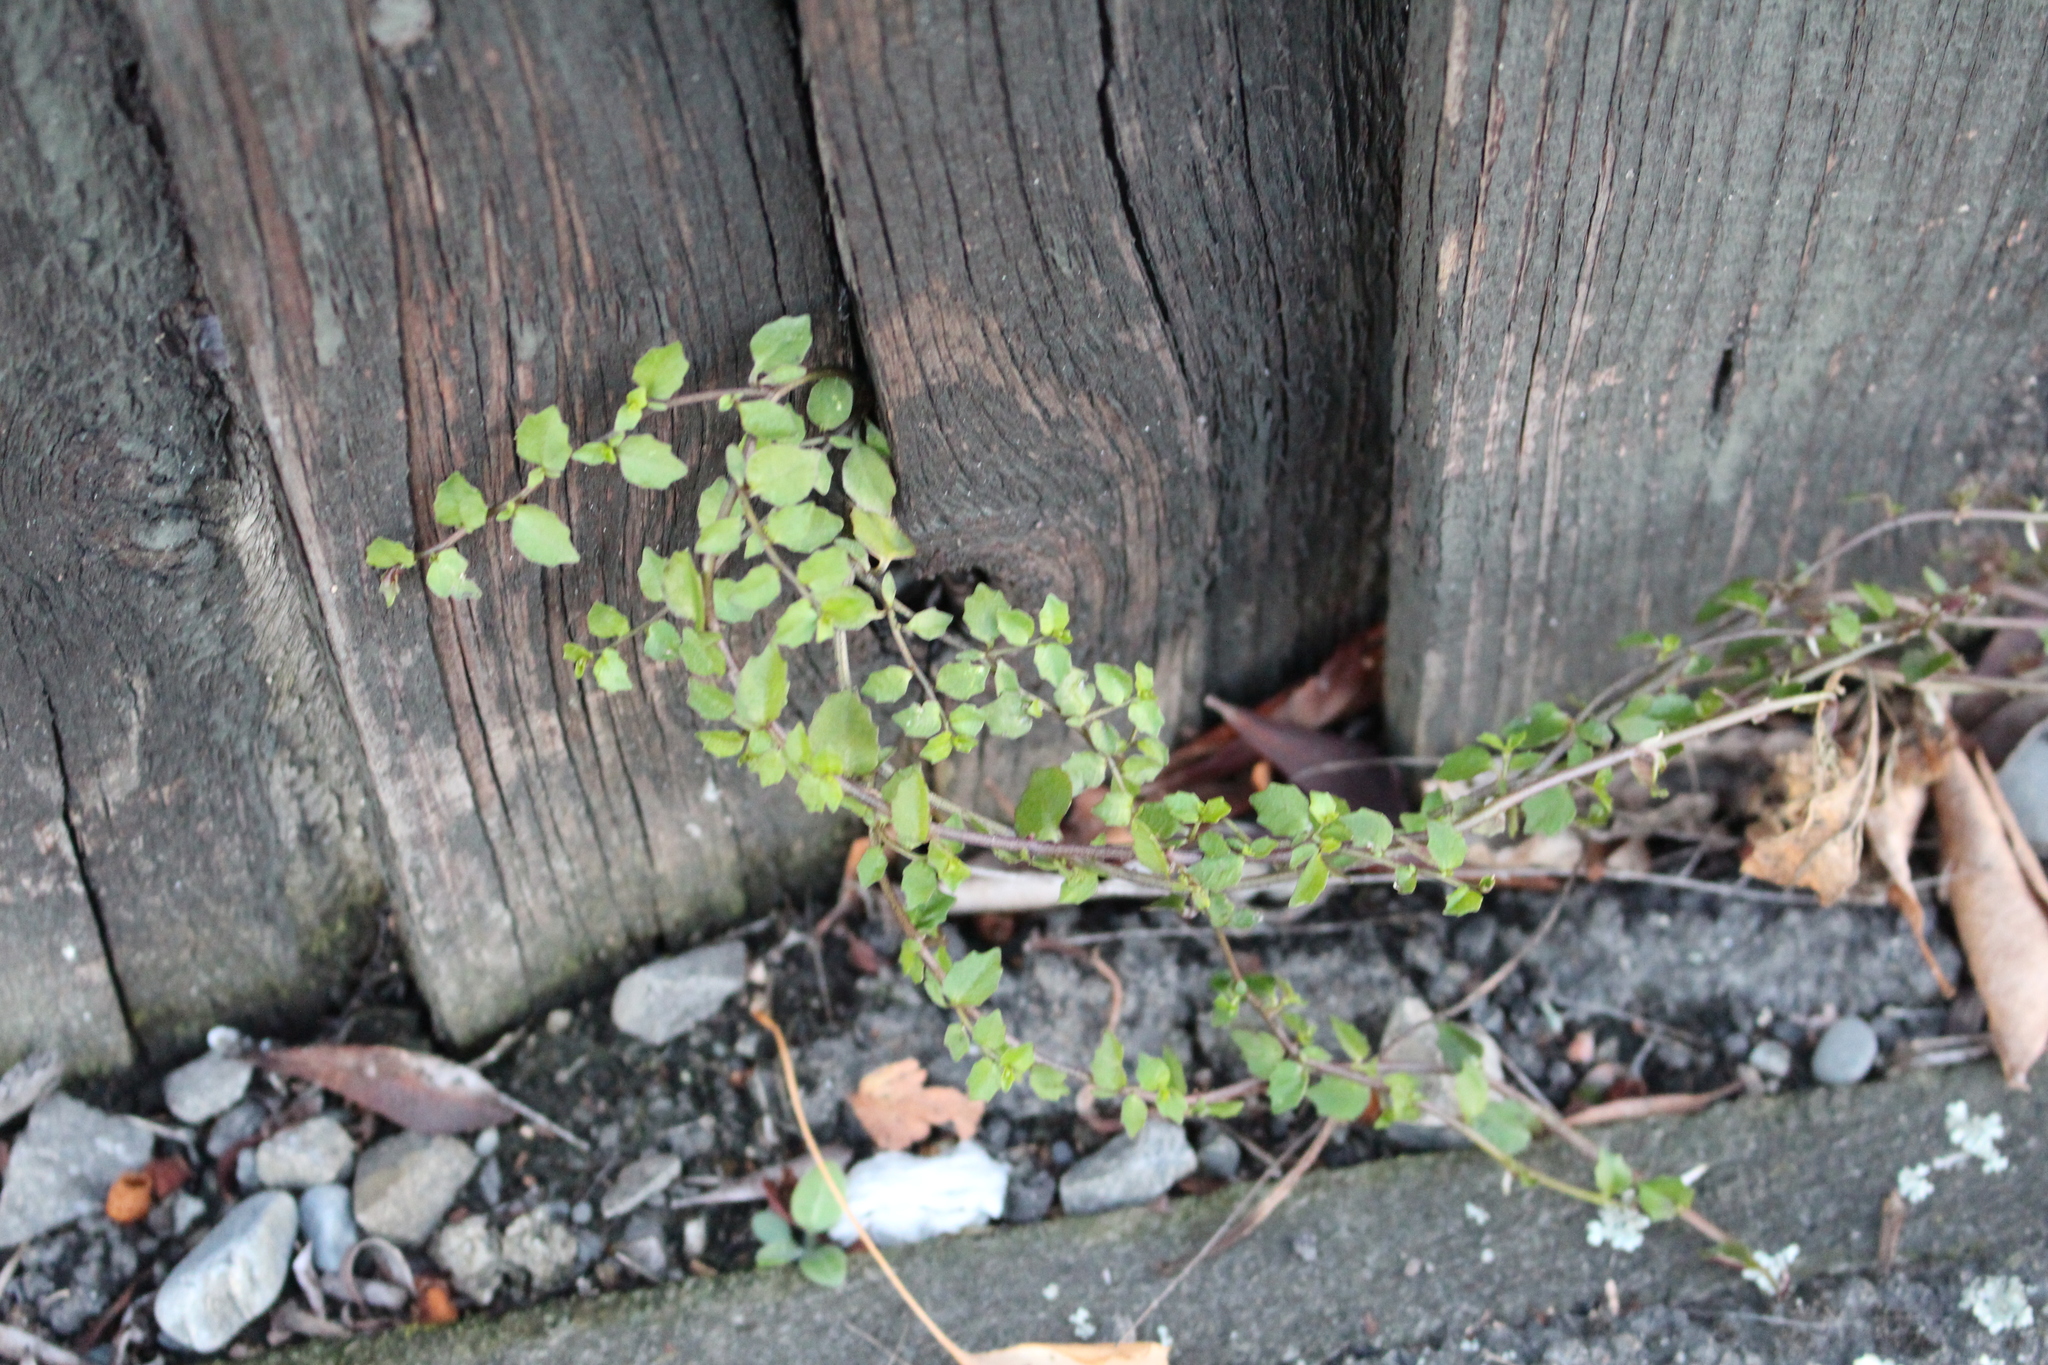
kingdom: Plantae
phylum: Tracheophyta
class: Magnoliopsida
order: Asterales
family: Campanulaceae
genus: Lobelia
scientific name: Lobelia macrodon
